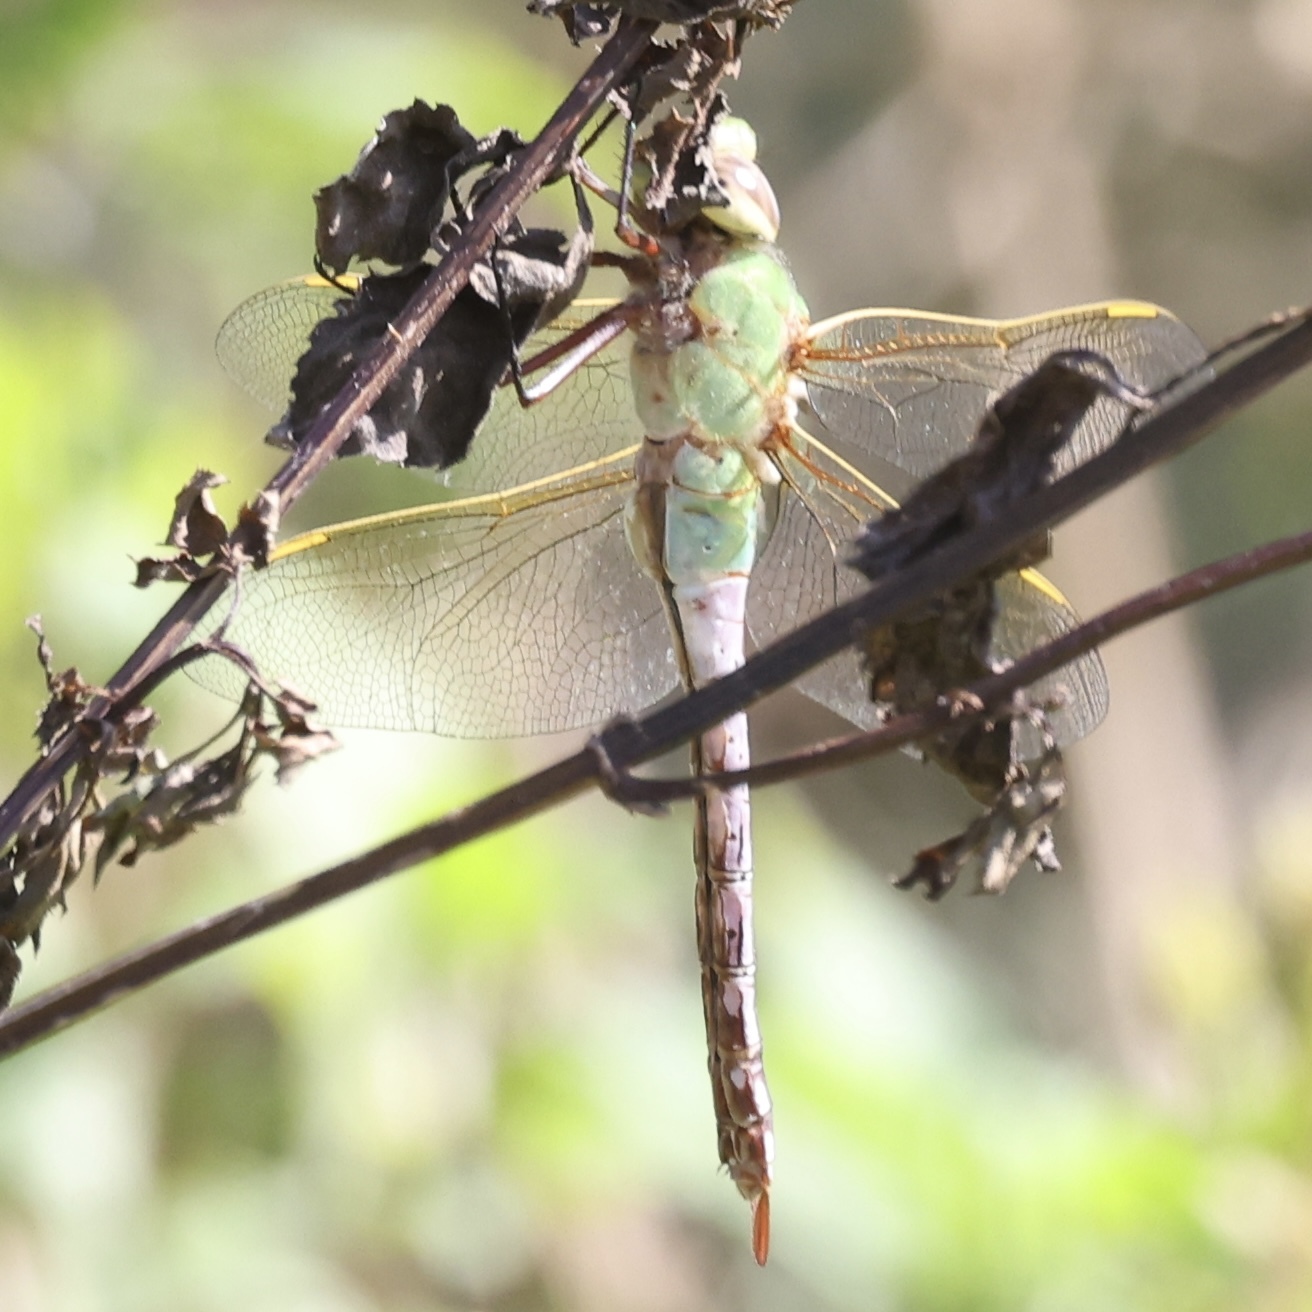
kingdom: Animalia
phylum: Arthropoda
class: Insecta
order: Odonata
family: Aeshnidae
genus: Anax
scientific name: Anax junius
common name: Common green darner
